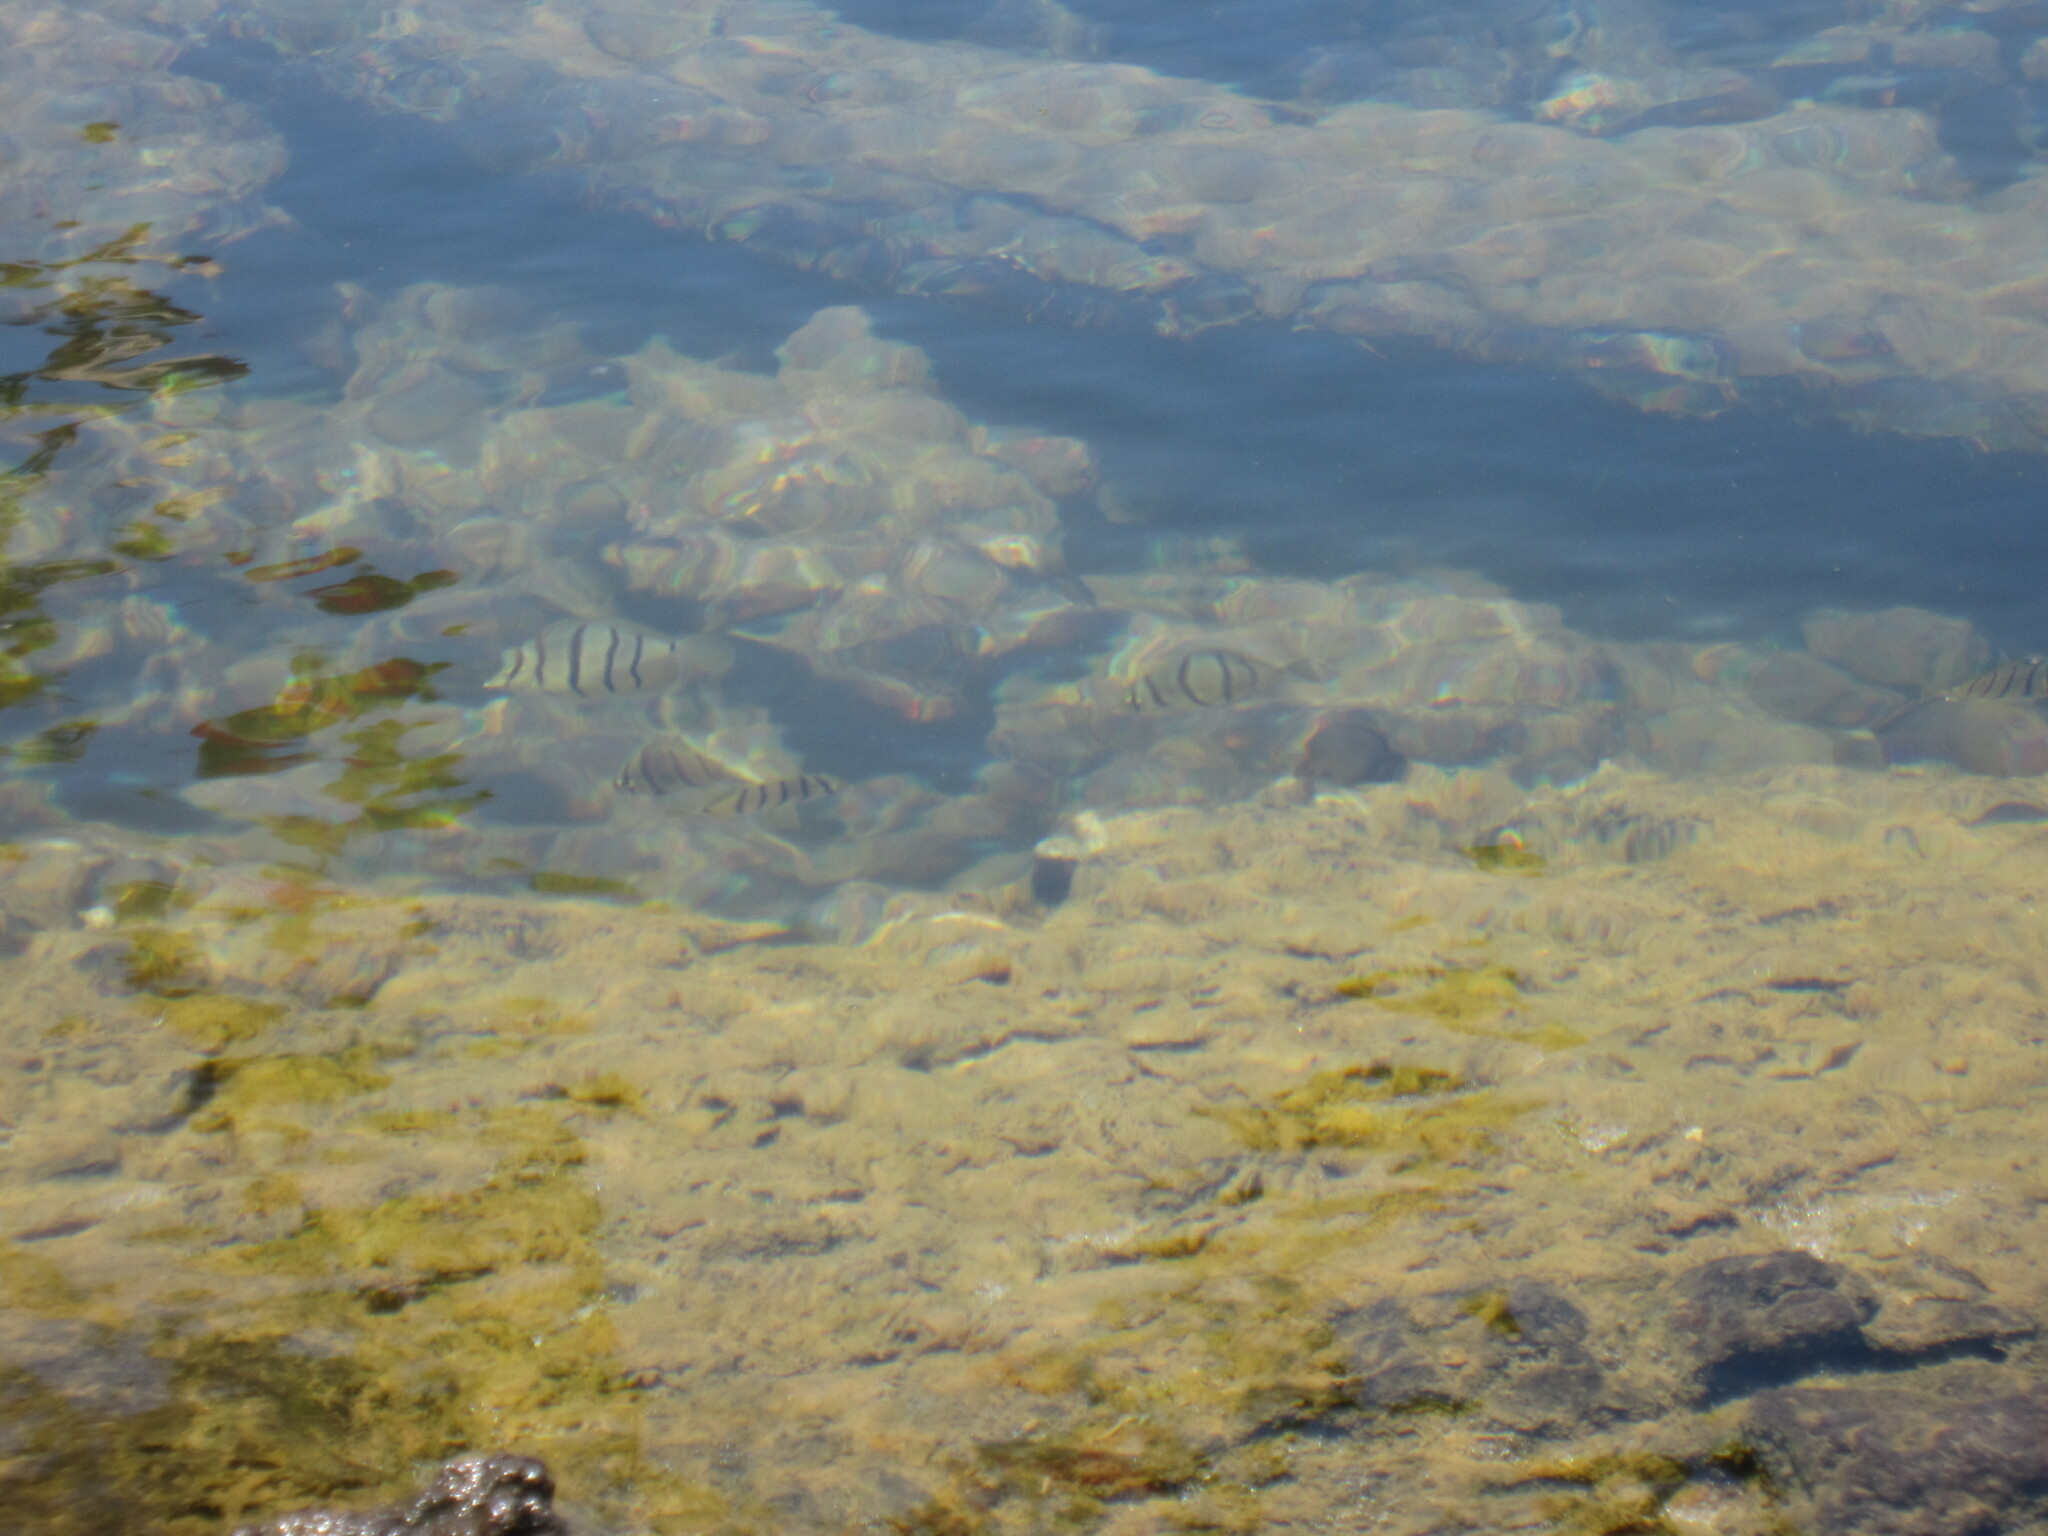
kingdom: Animalia
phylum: Chordata
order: Perciformes
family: Acanthuridae
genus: Acanthurus
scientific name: Acanthurus triostegus
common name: Convict surgeonfish
